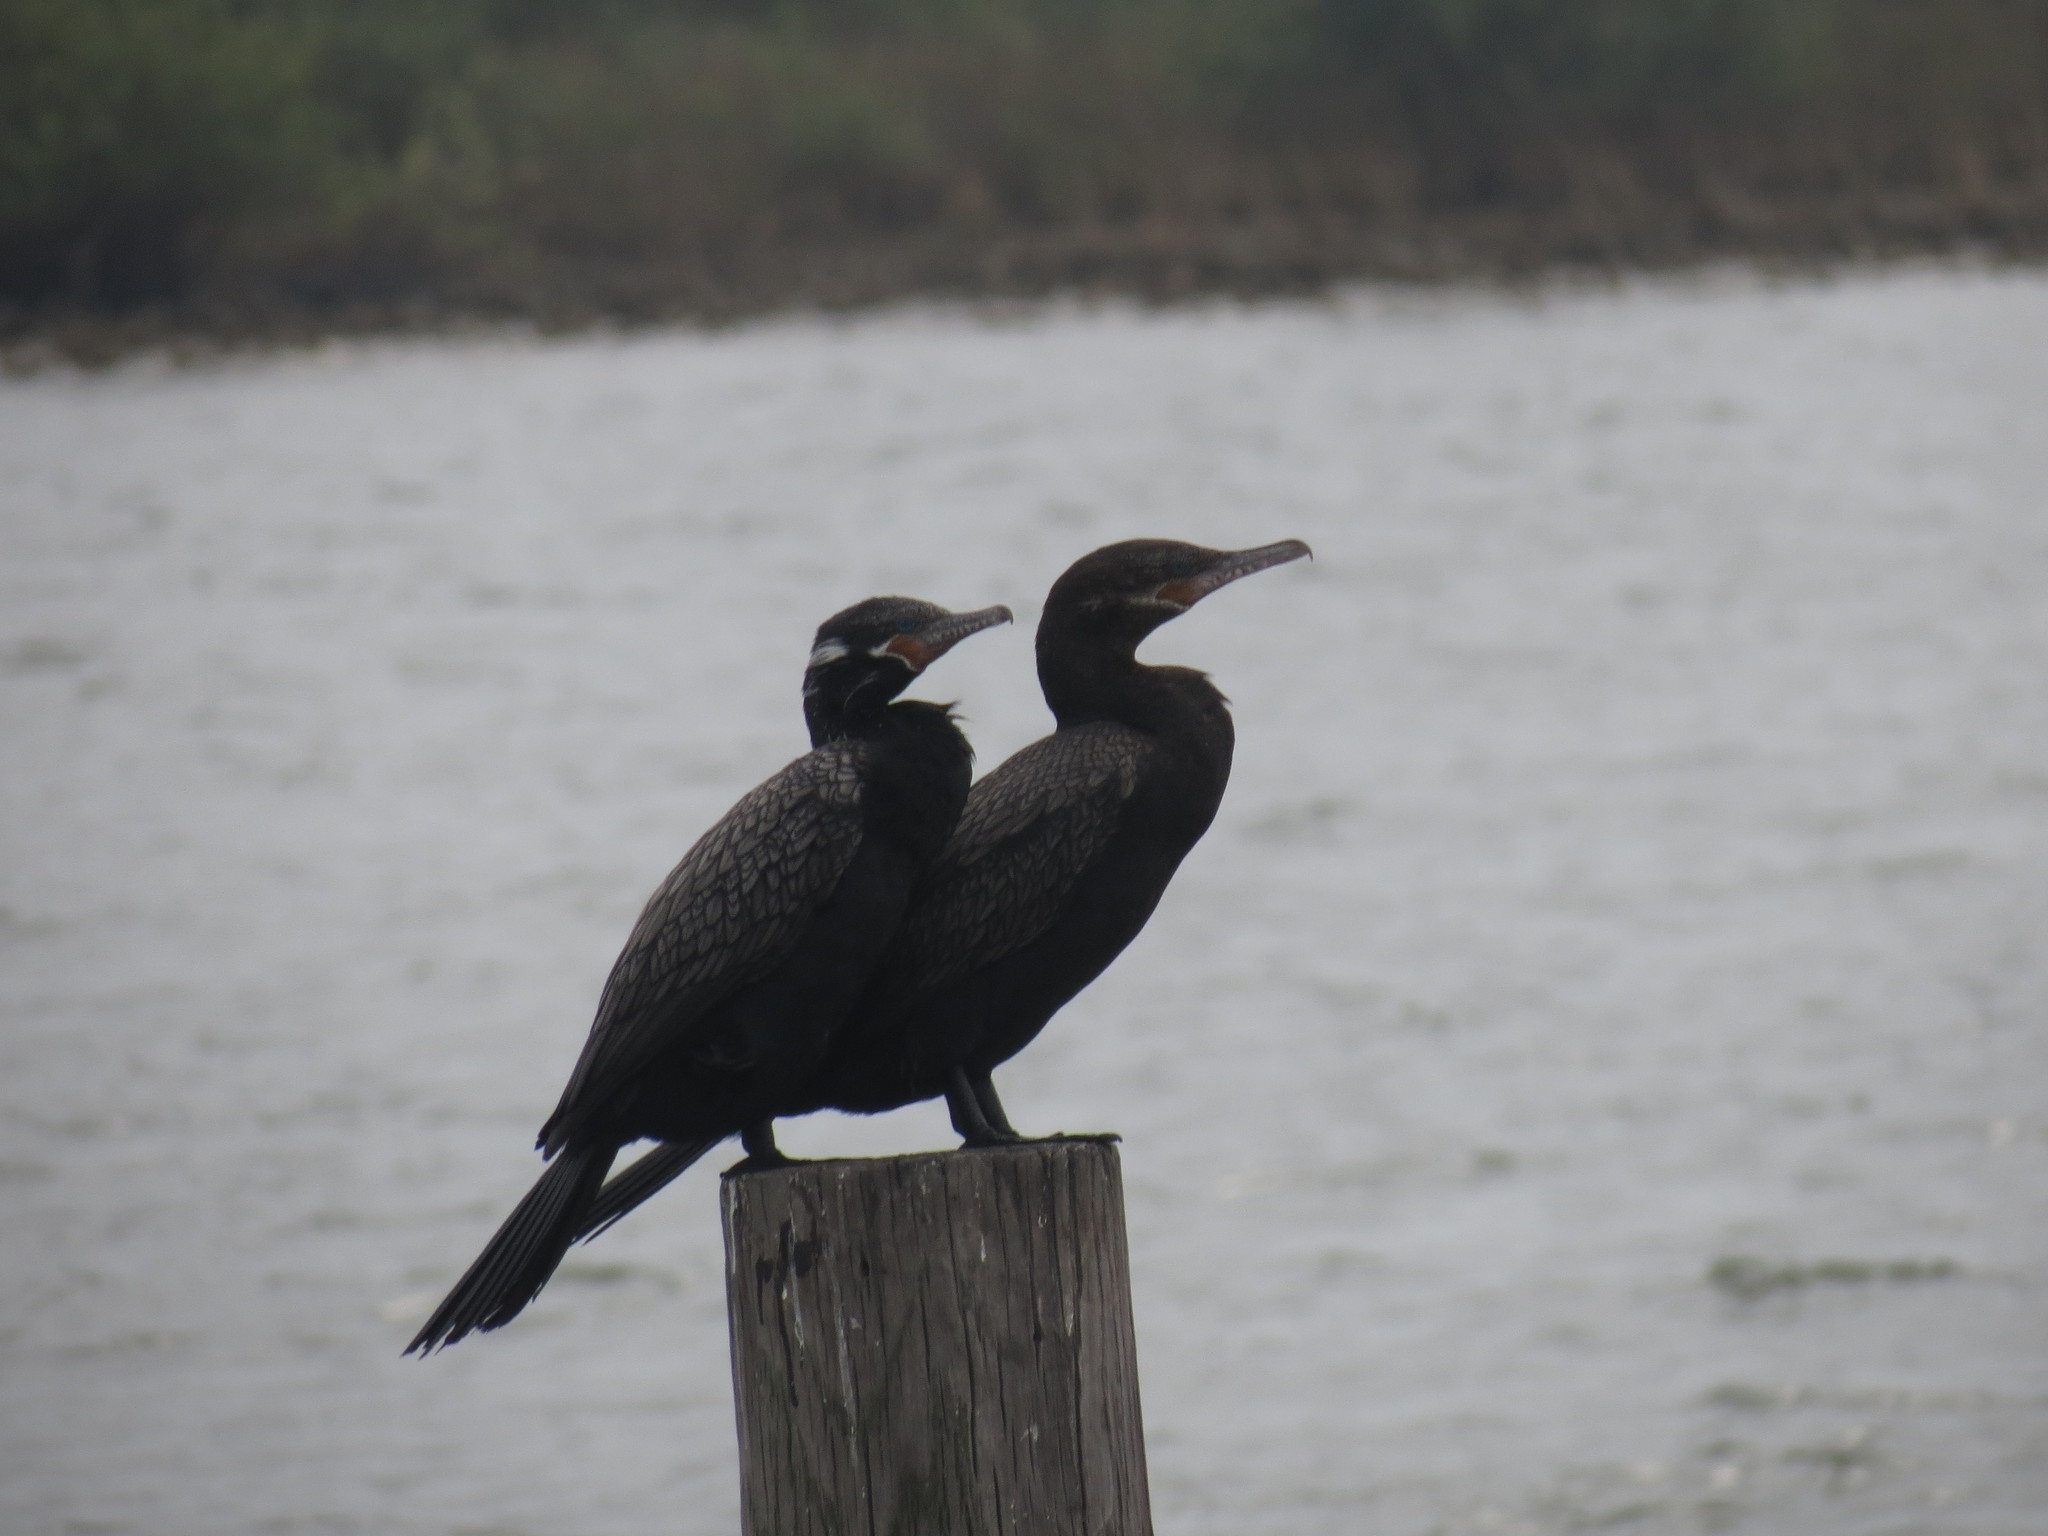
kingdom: Animalia
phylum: Chordata
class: Aves
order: Suliformes
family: Phalacrocoracidae
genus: Phalacrocorax
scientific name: Phalacrocorax brasilianus
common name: Neotropic cormorant
